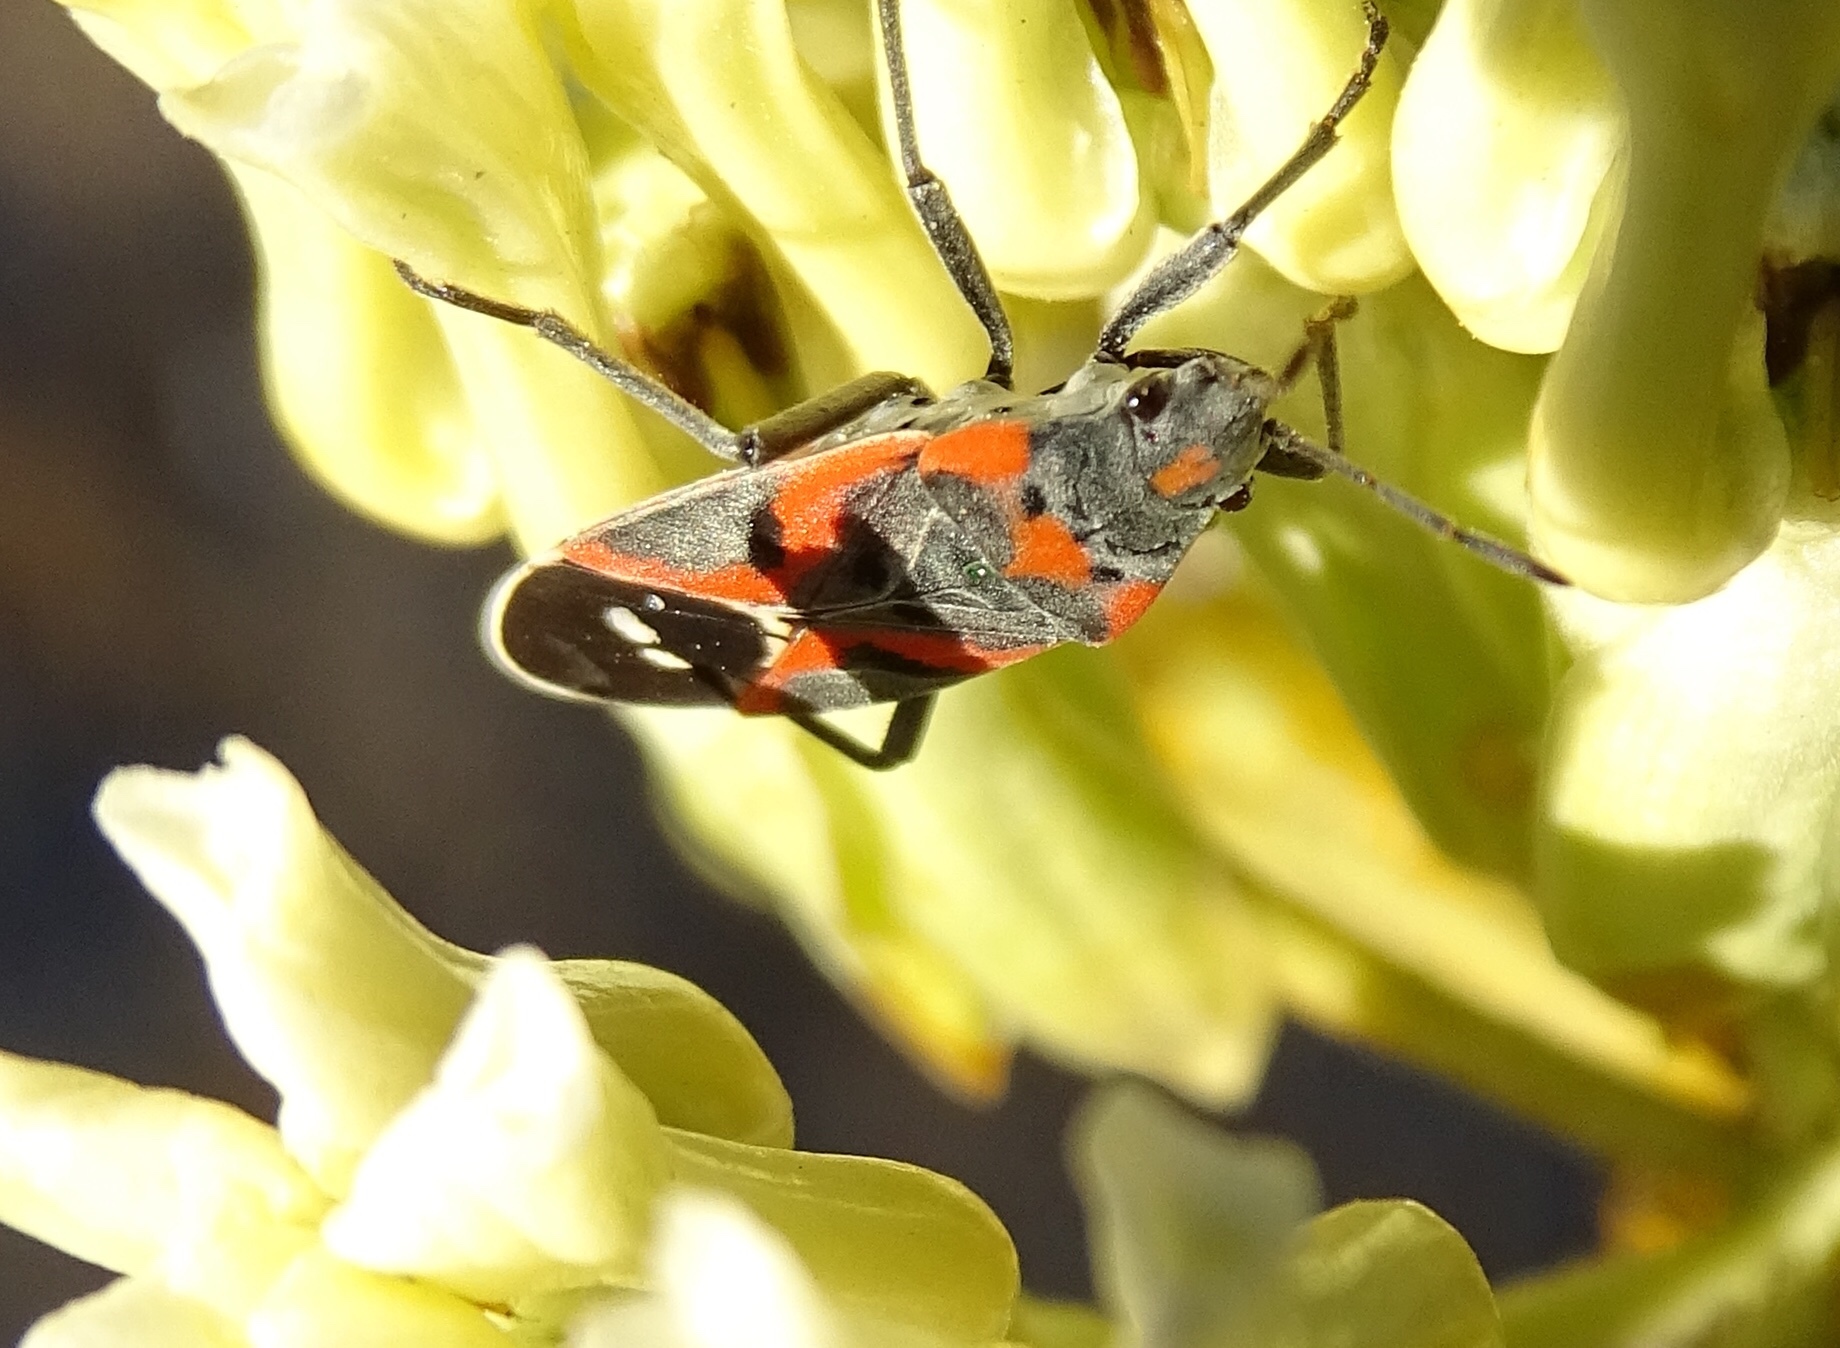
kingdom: Animalia
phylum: Arthropoda
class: Insecta
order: Hemiptera
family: Lygaeidae
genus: Lygaeus
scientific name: Lygaeus kalmii
